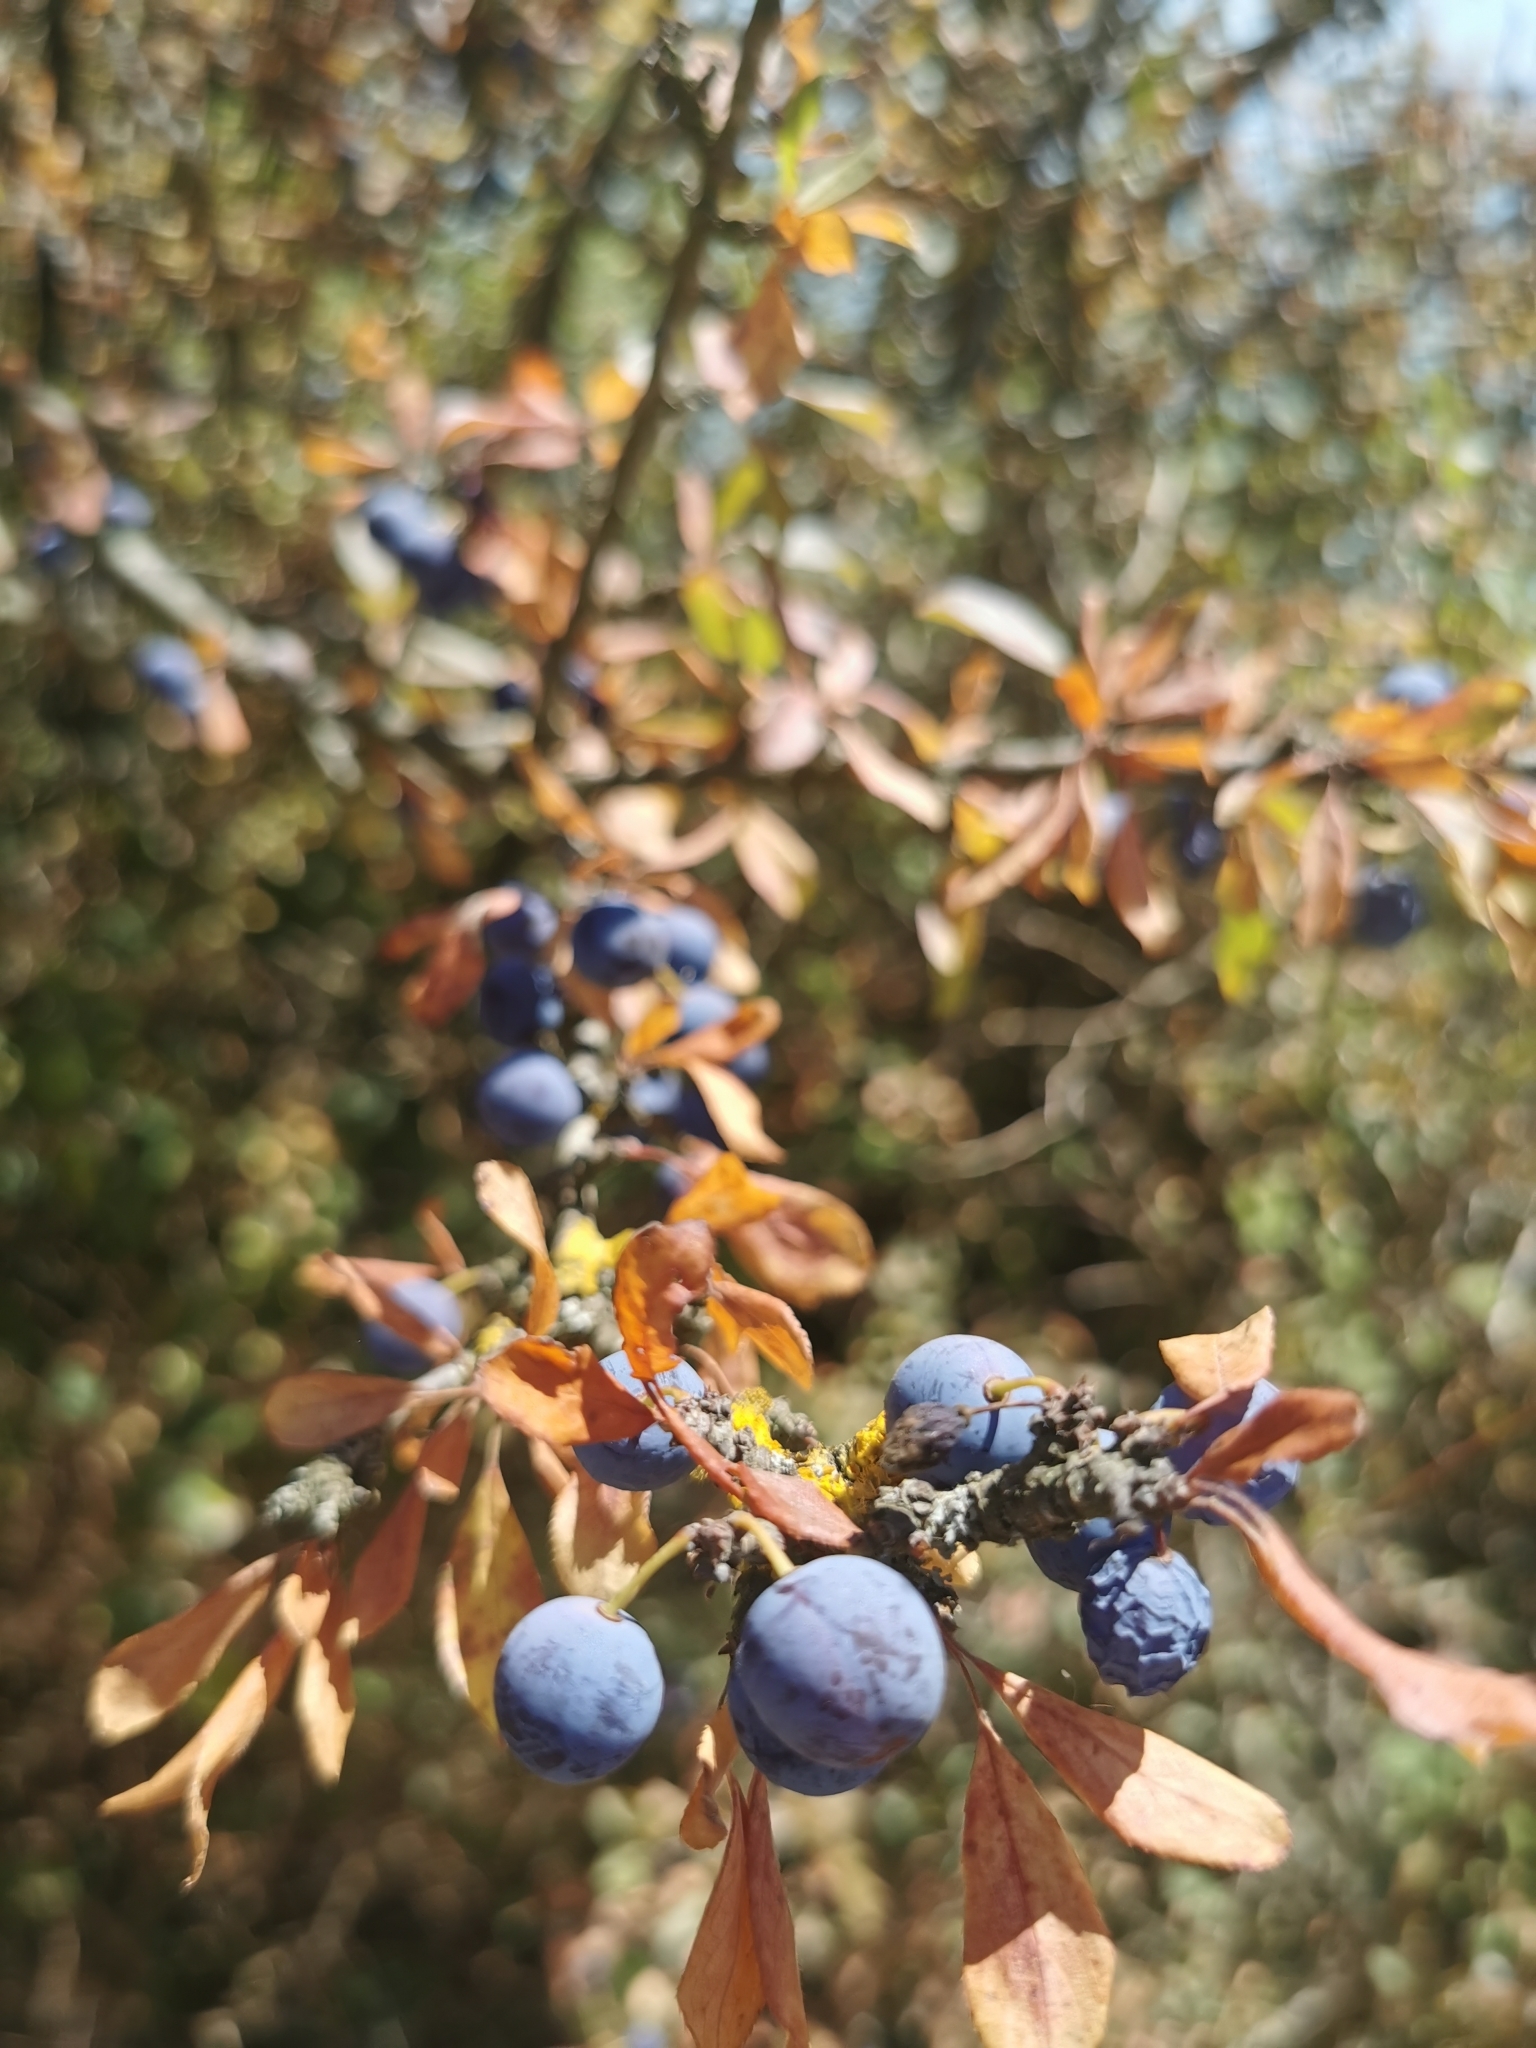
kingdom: Plantae
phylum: Tracheophyta
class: Magnoliopsida
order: Rosales
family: Rosaceae
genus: Prunus
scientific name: Prunus spinosa
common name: Blackthorn
